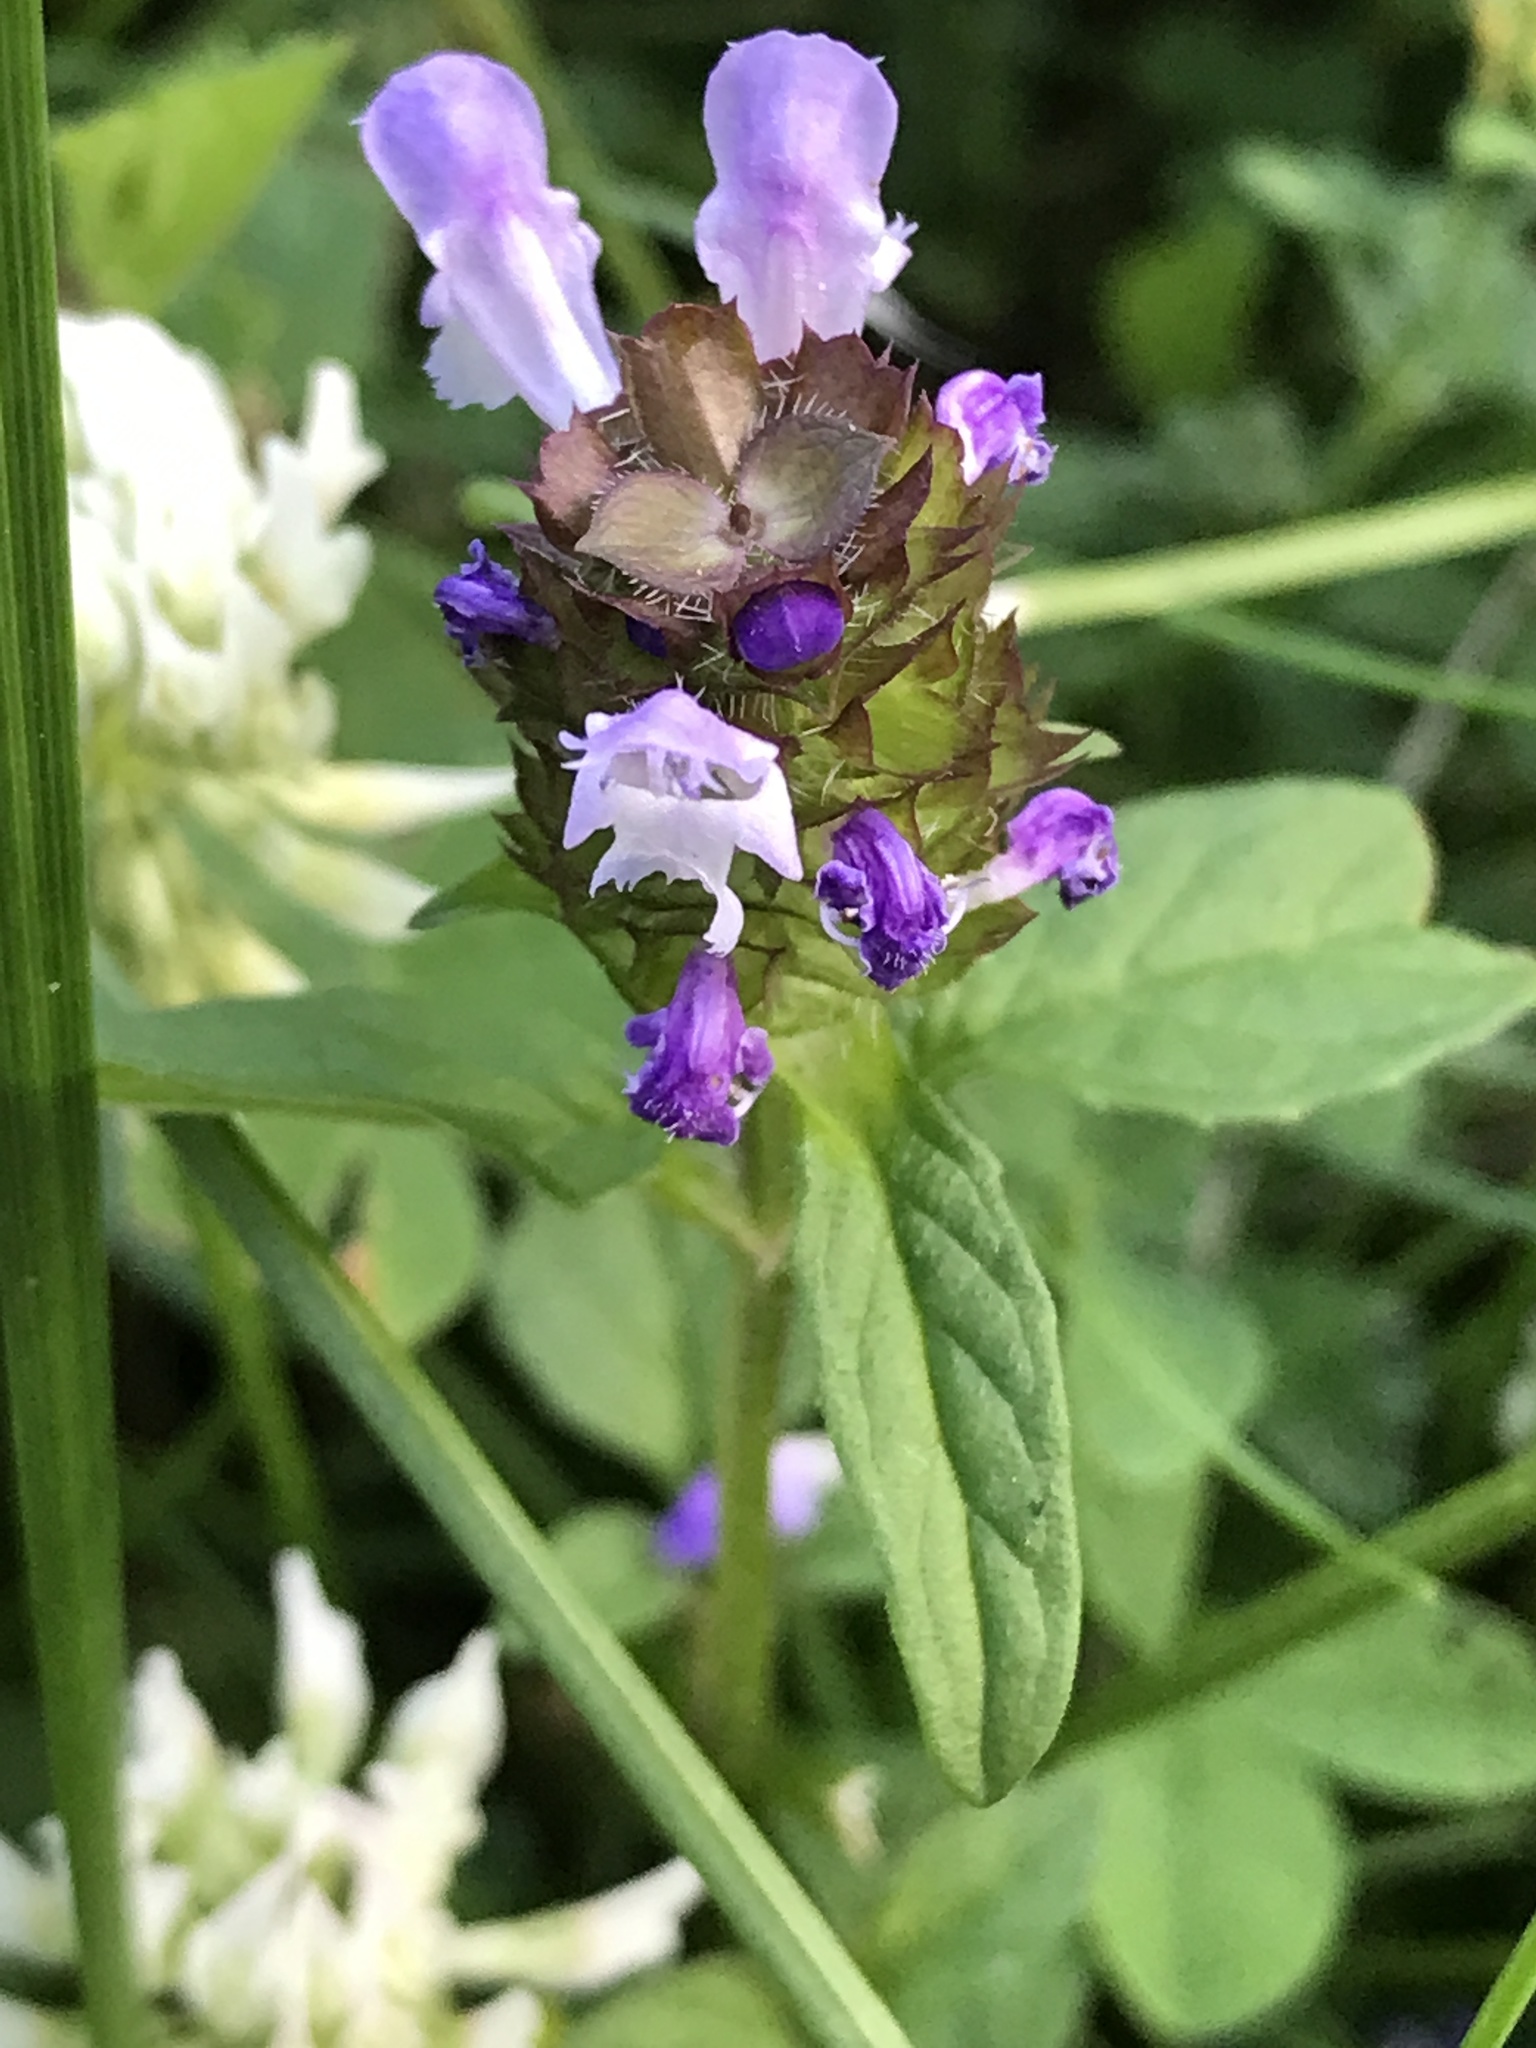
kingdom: Plantae
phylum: Tracheophyta
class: Magnoliopsida
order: Lamiales
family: Lamiaceae
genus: Prunella
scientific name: Prunella vulgaris
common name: Heal-all
